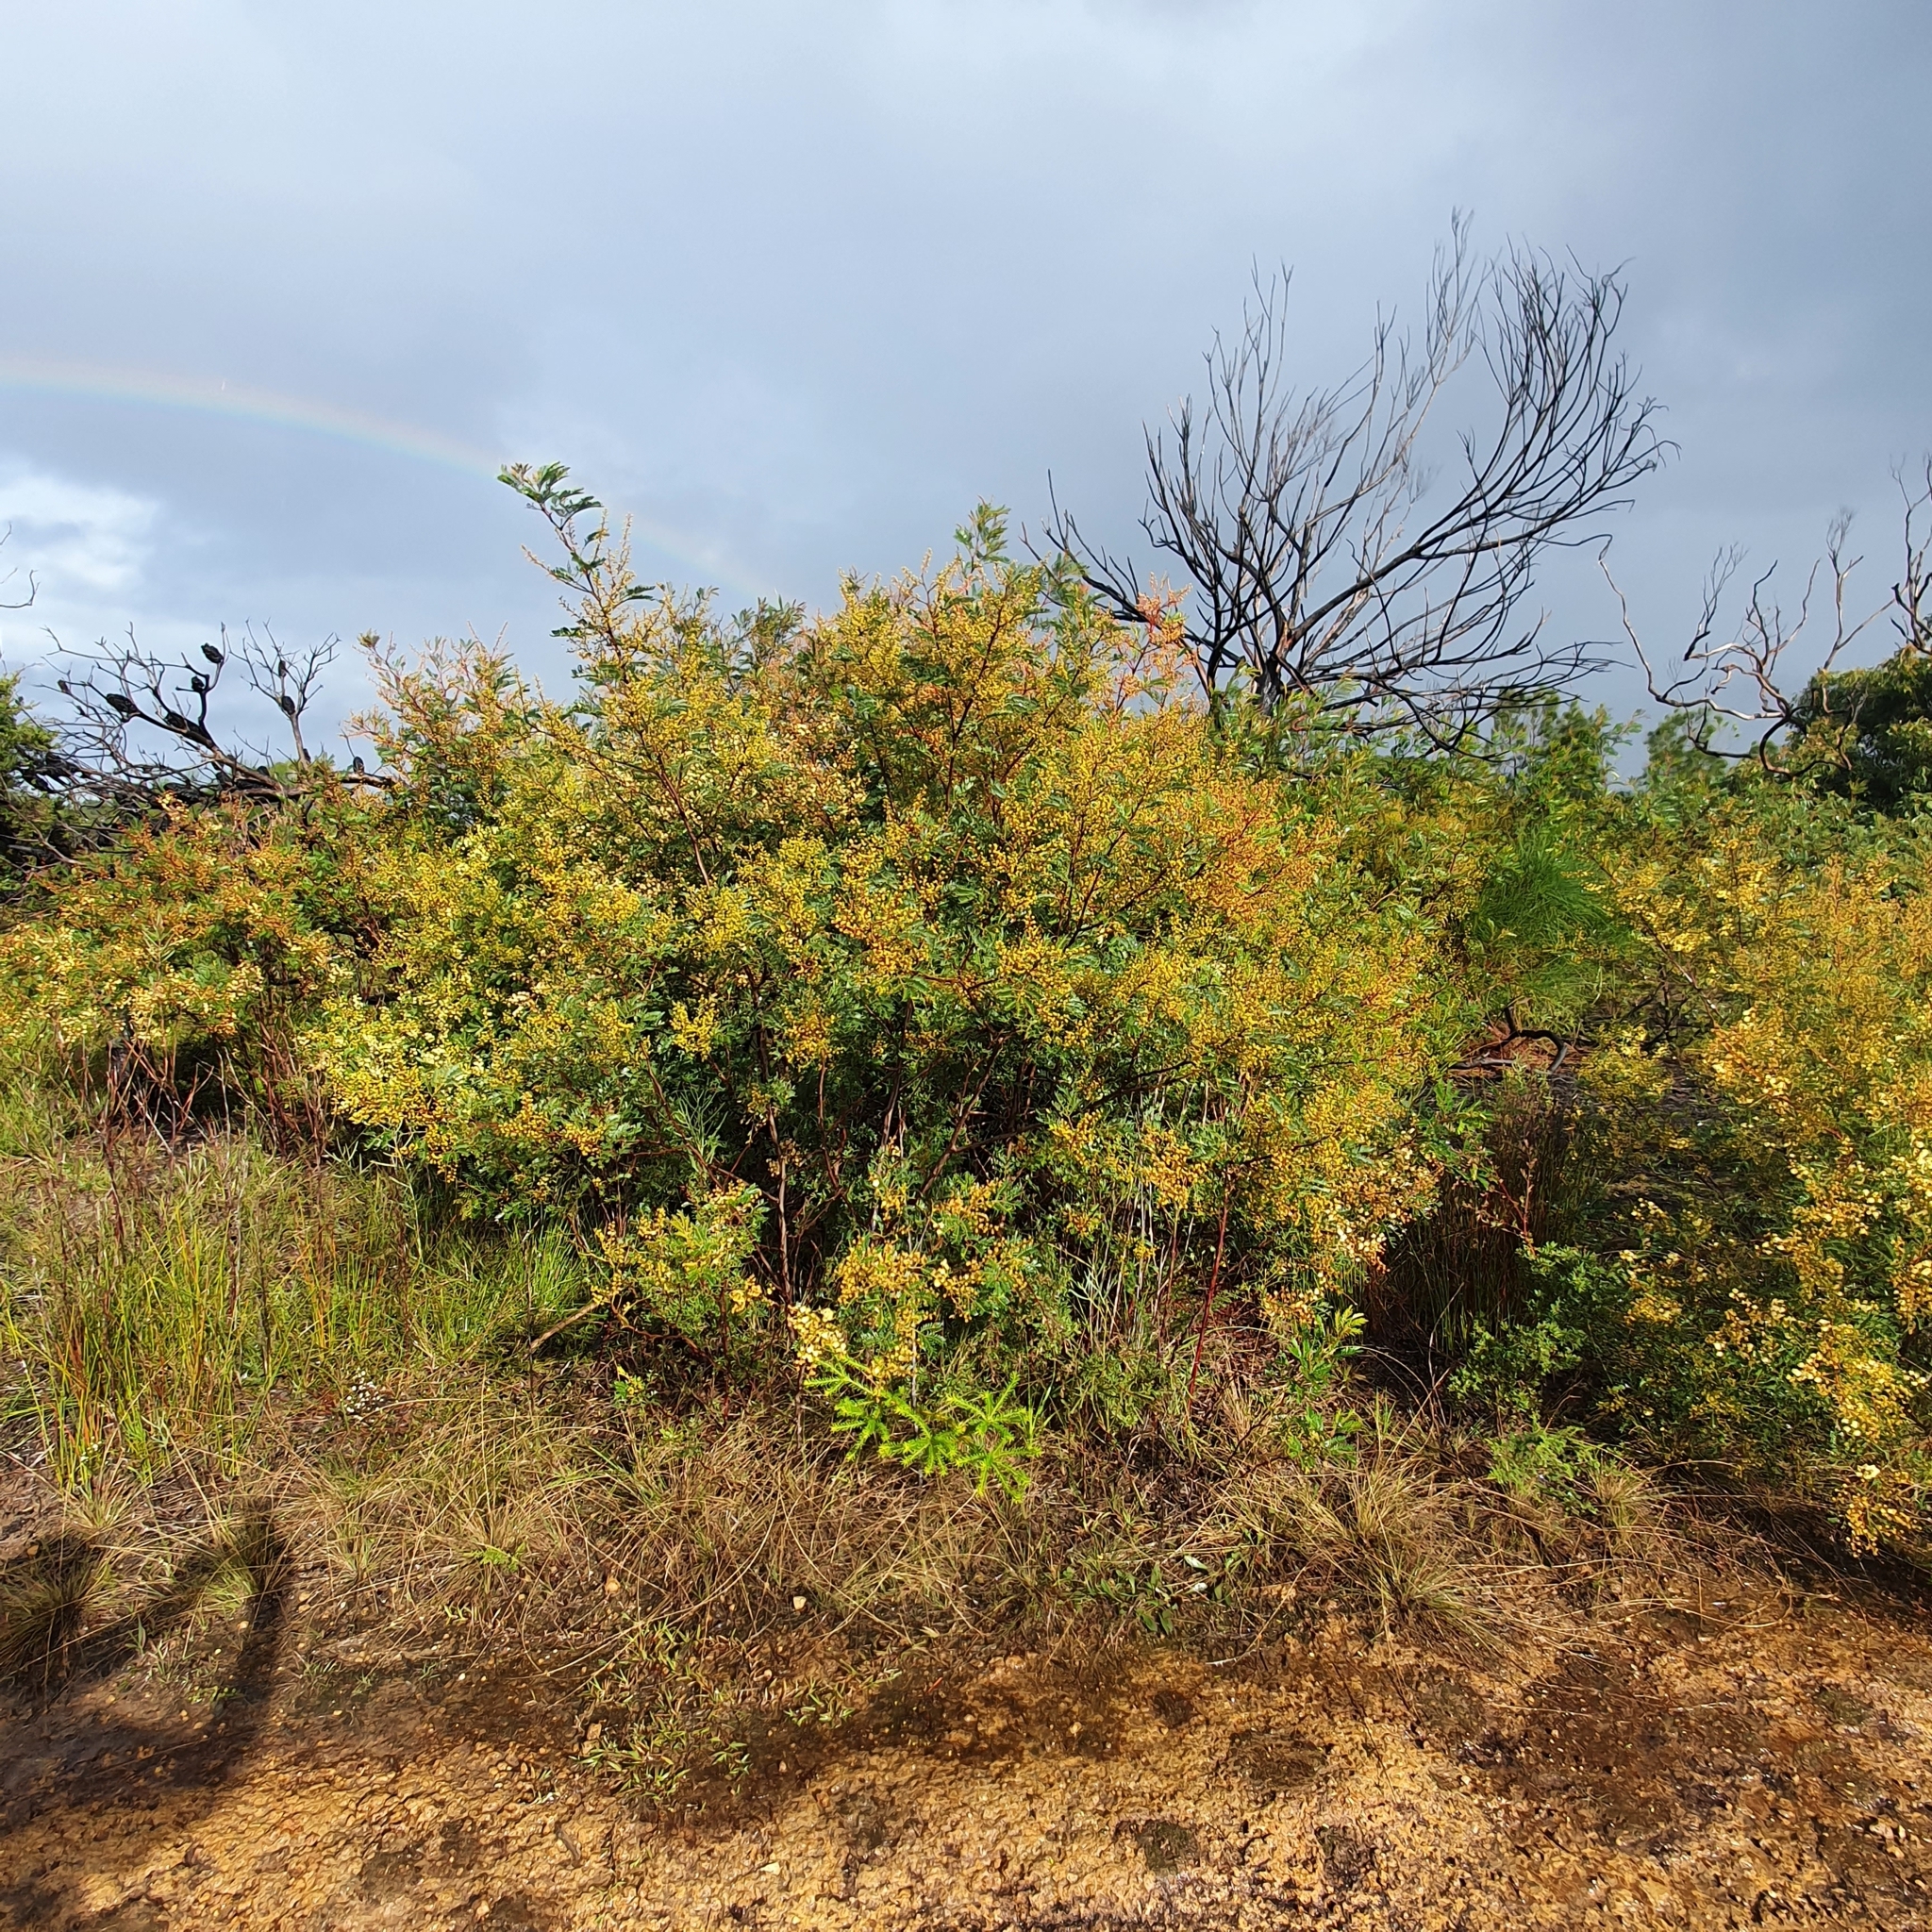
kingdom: Plantae
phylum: Tracheophyta
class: Magnoliopsida
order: Fabales
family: Fabaceae
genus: Acacia
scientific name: Acacia terminalis
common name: Cedar wattle
